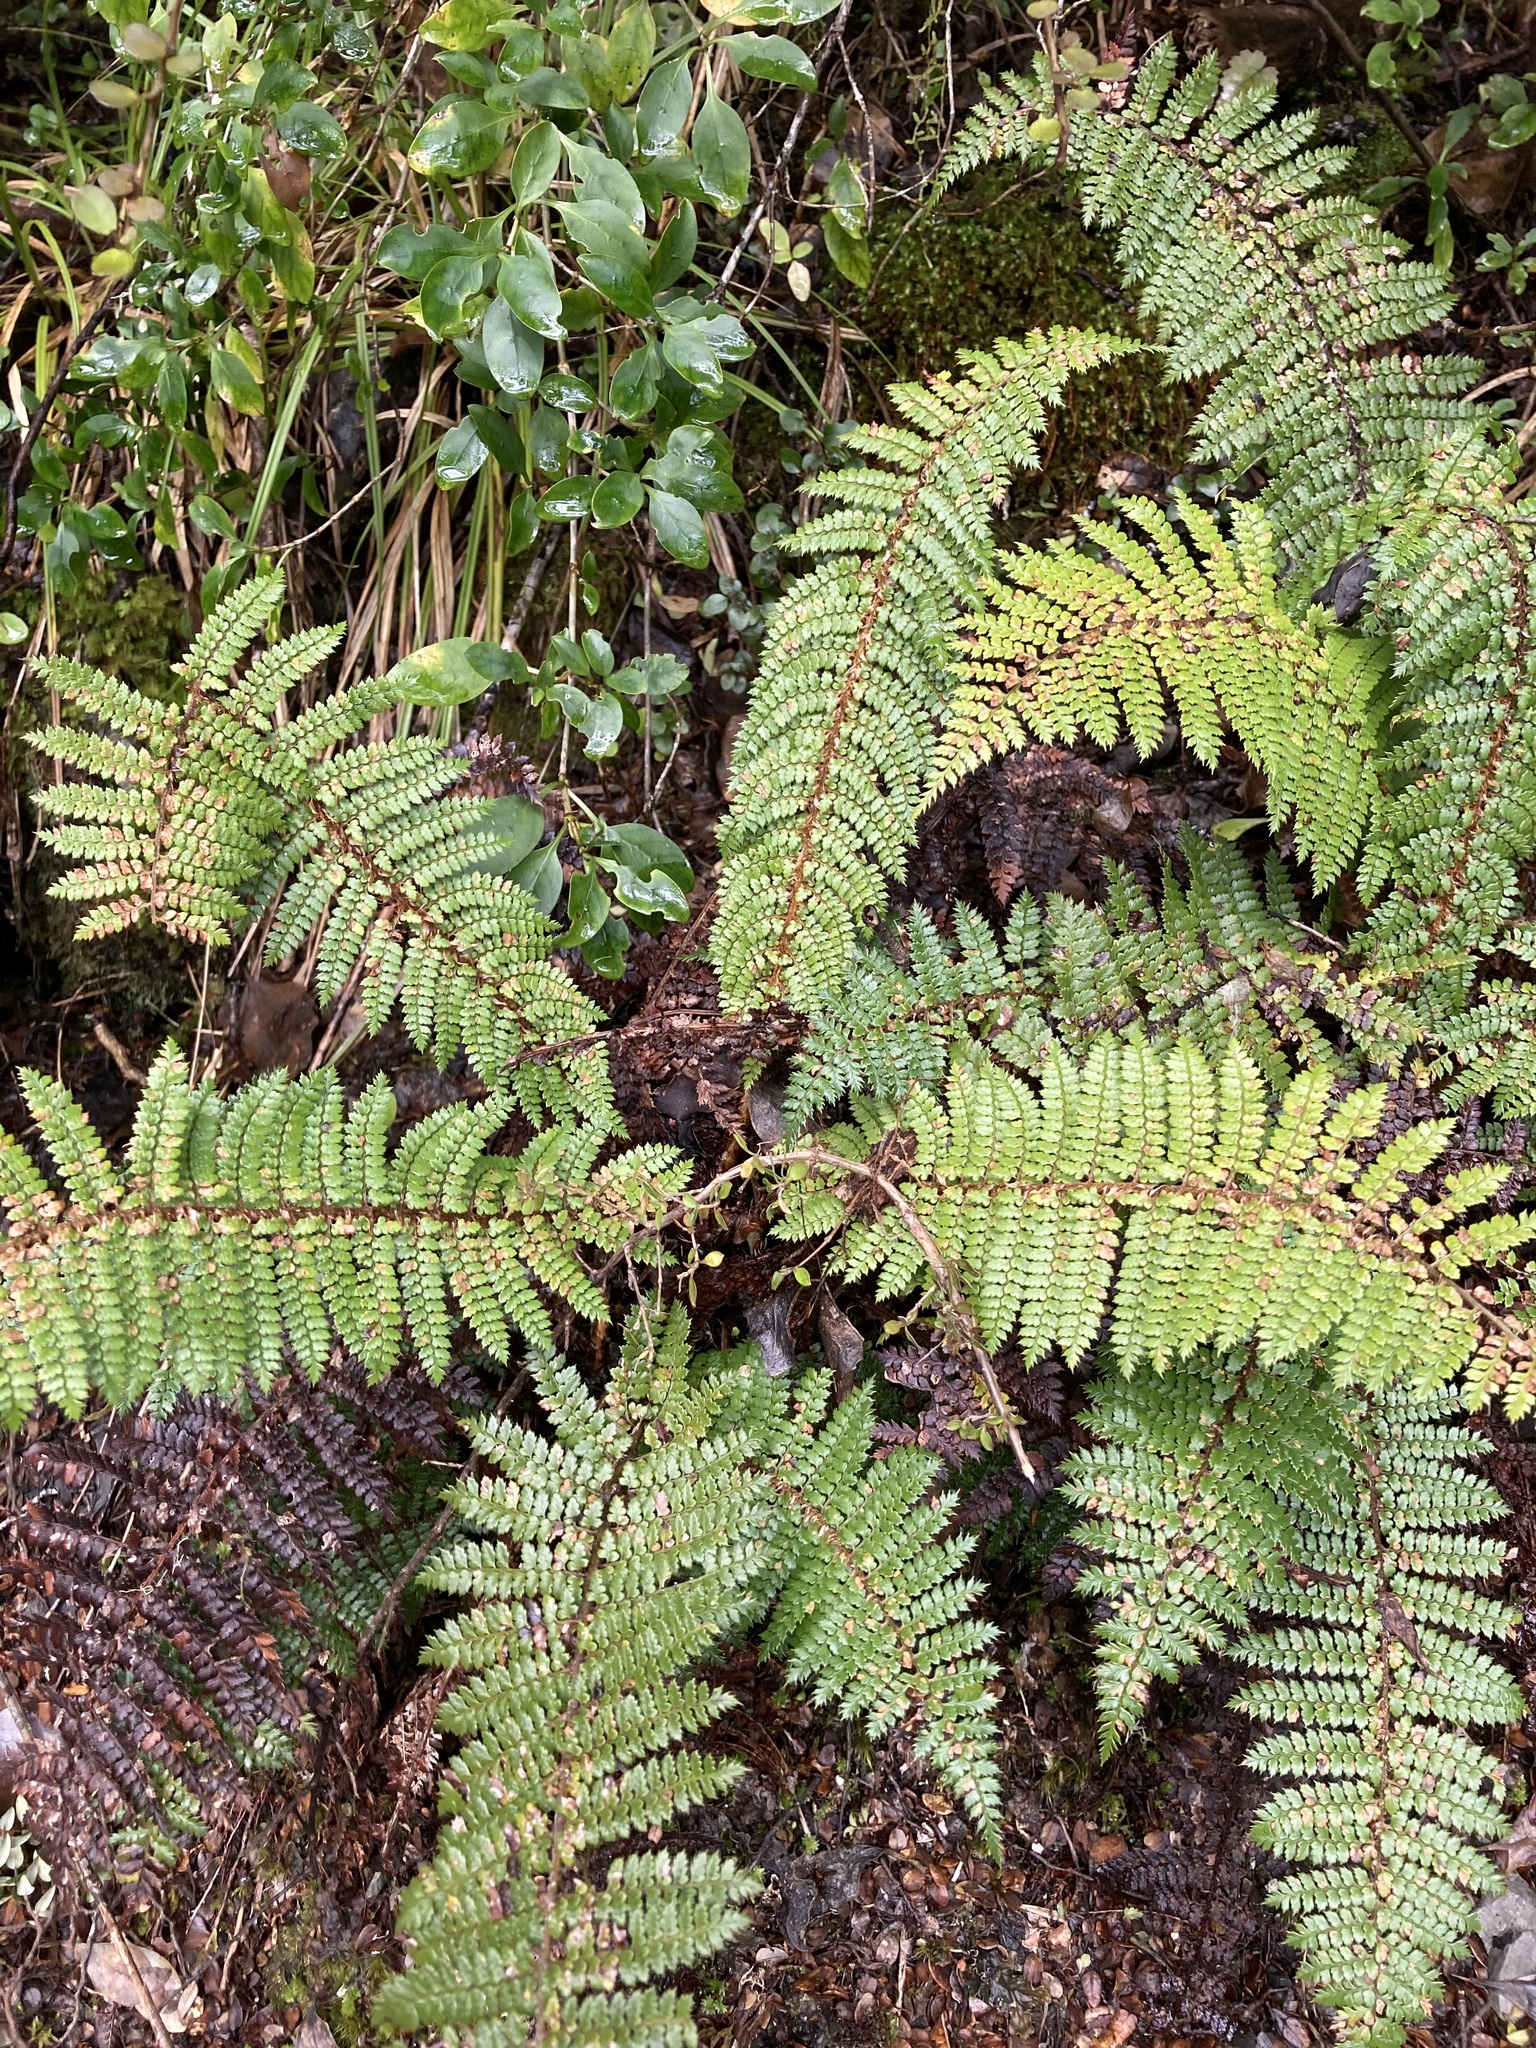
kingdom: Plantae
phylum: Tracheophyta
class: Polypodiopsida
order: Polypodiales
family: Dryopteridaceae
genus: Polystichum
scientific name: Polystichum vestitum
